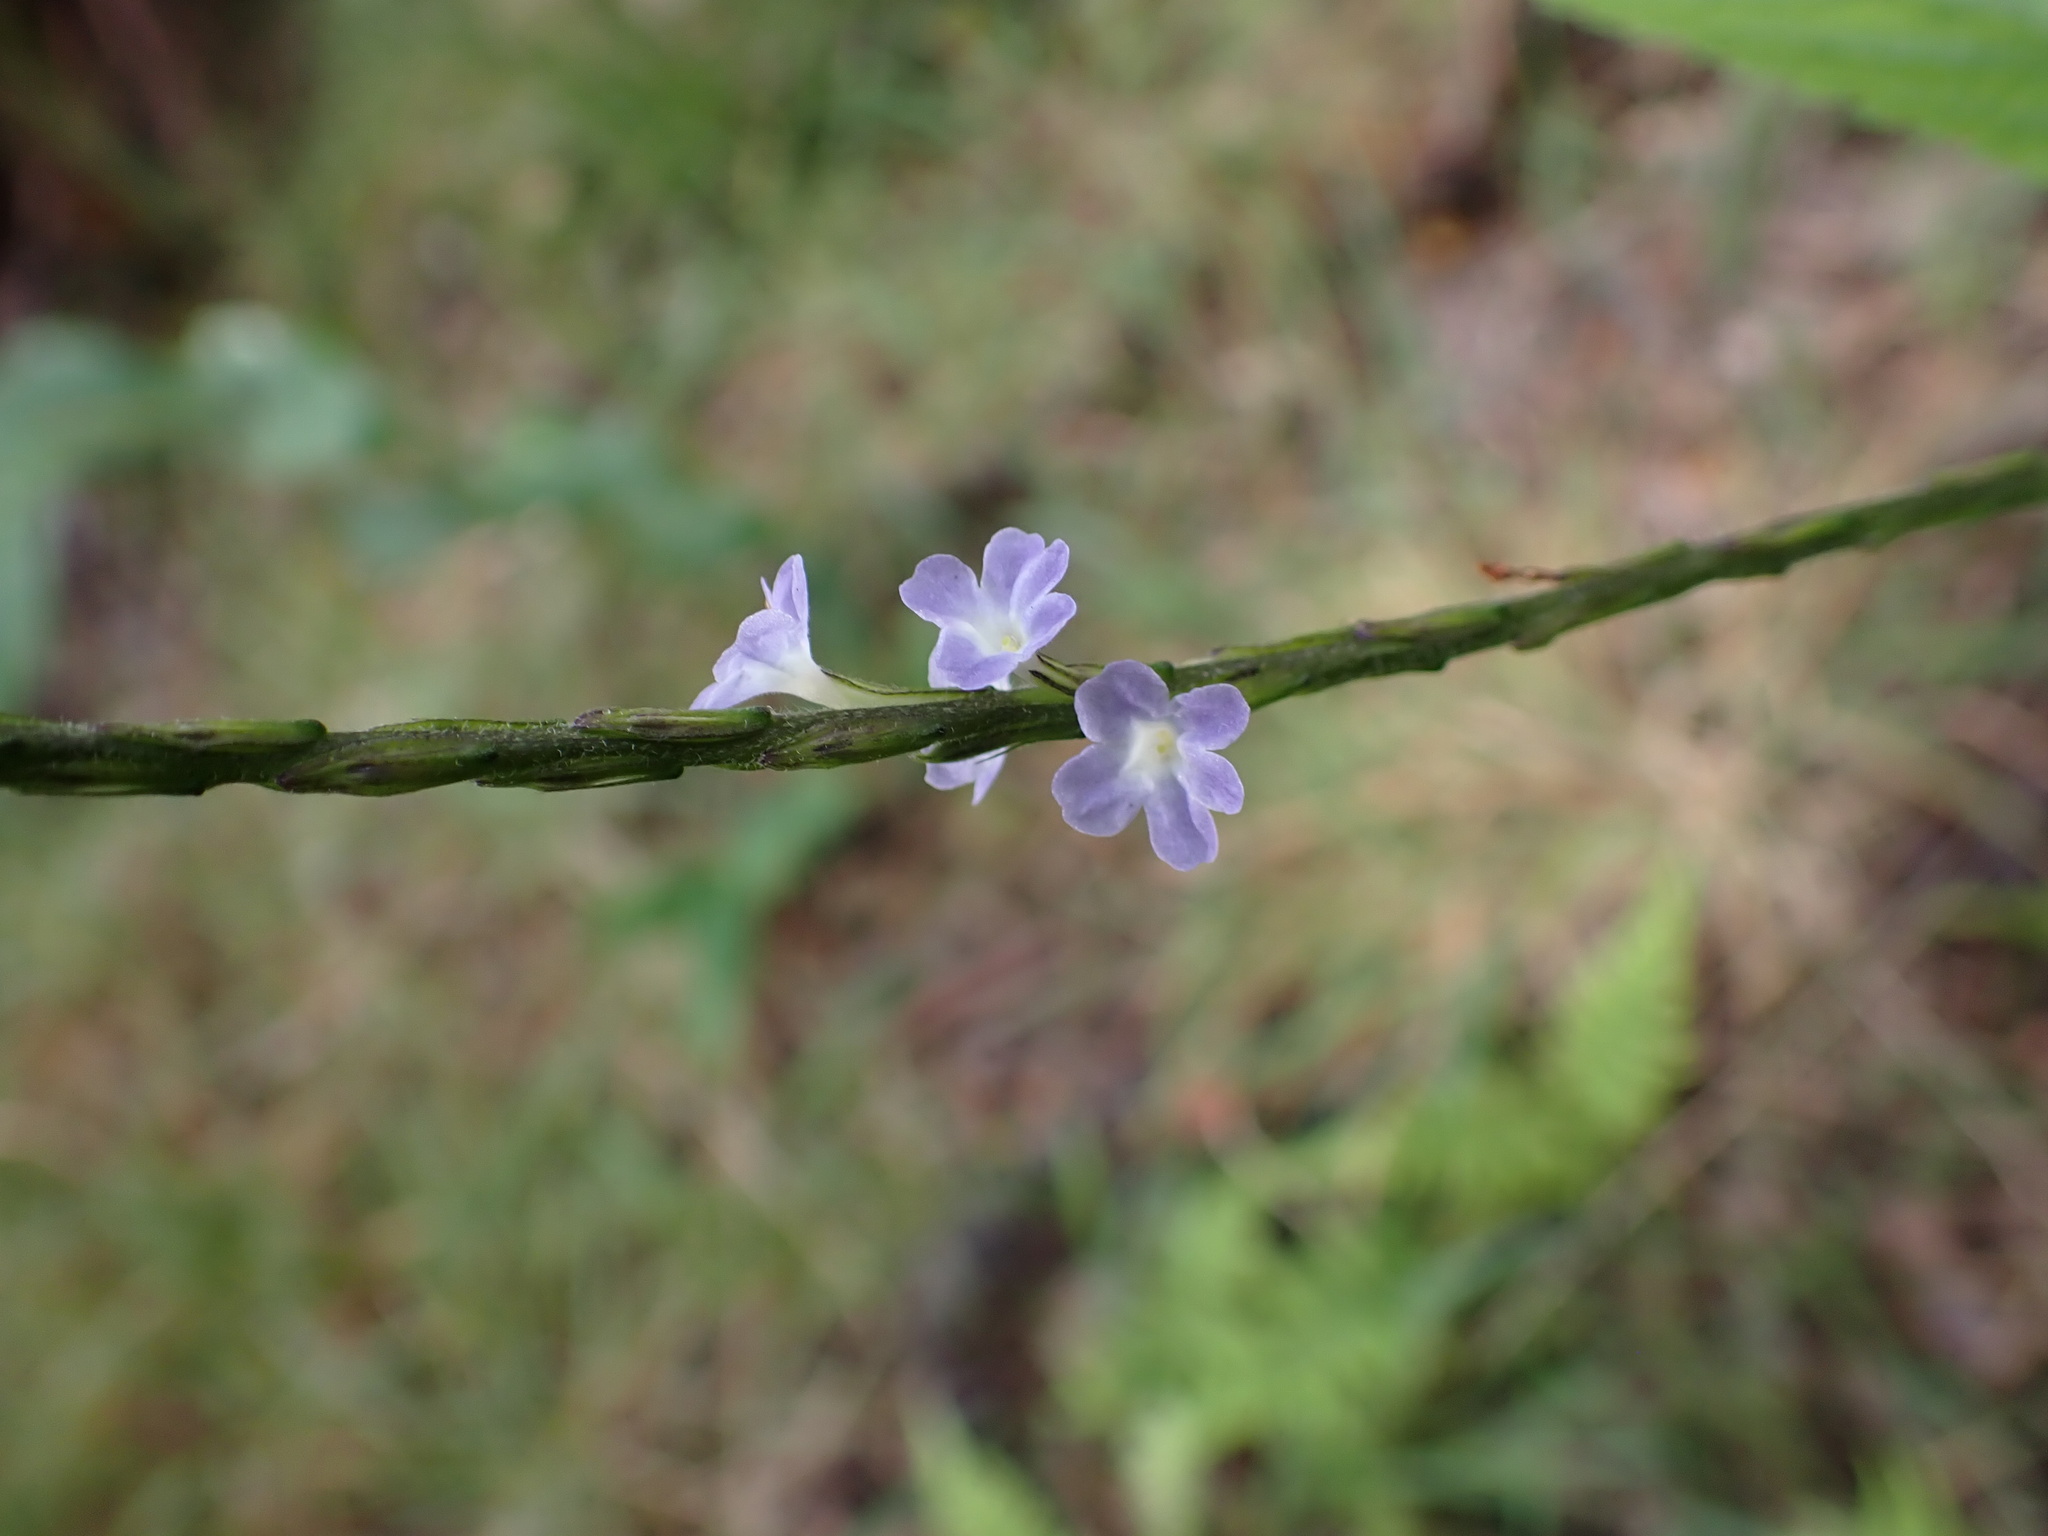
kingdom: Plantae
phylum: Tracheophyta
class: Magnoliopsida
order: Lamiales
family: Verbenaceae
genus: Stachytarpheta
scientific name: Stachytarpheta cayennensis
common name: Cayenne porterweed
